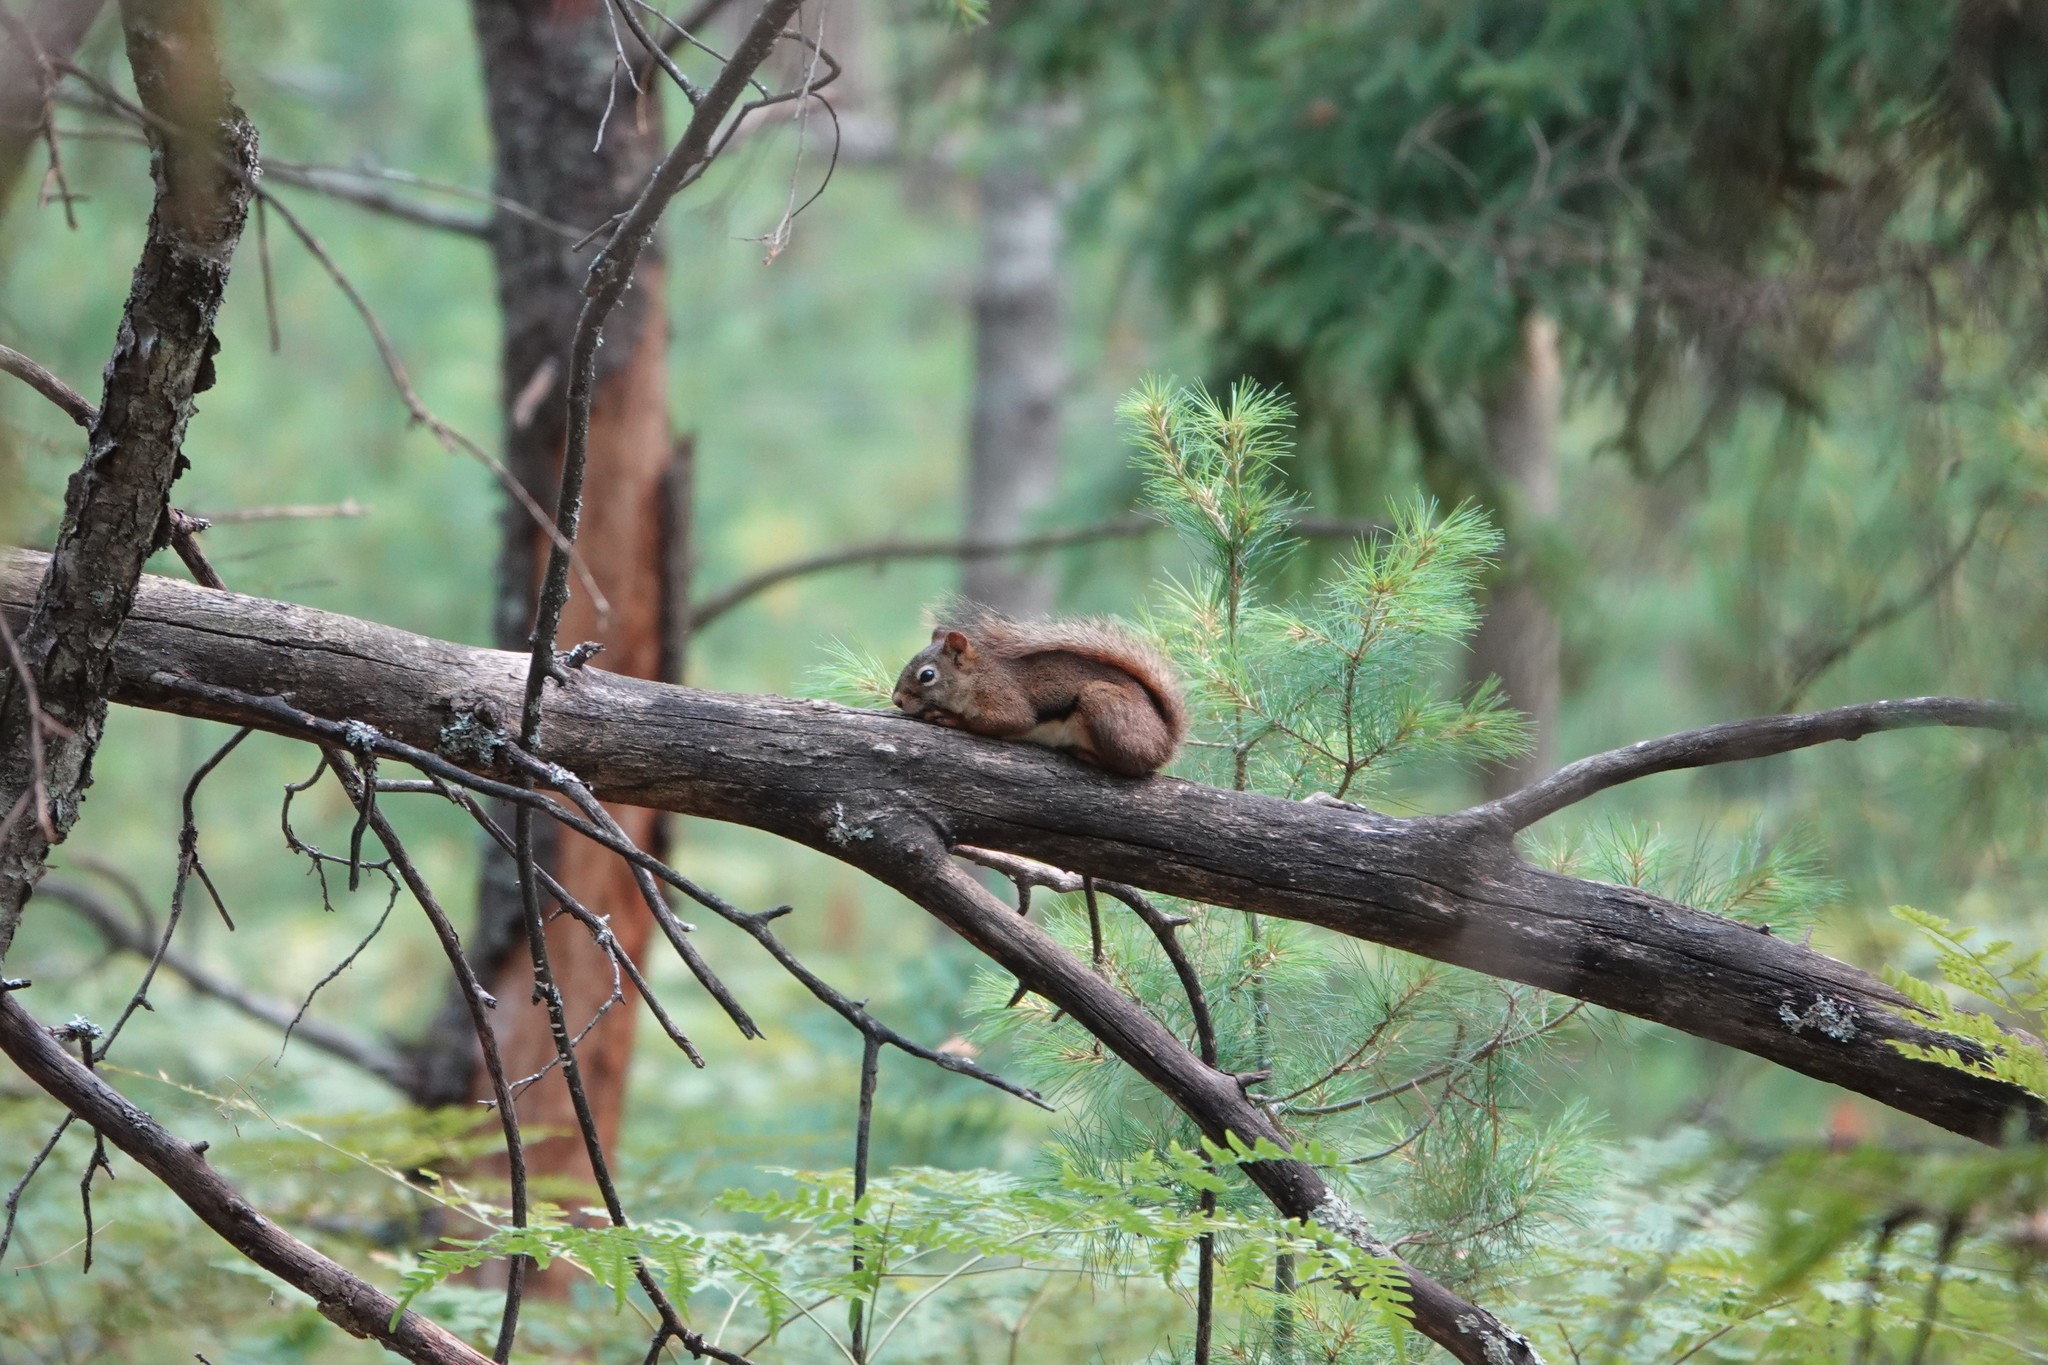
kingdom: Animalia
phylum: Chordata
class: Mammalia
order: Rodentia
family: Sciuridae
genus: Tamiasciurus
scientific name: Tamiasciurus hudsonicus
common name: Red squirrel
